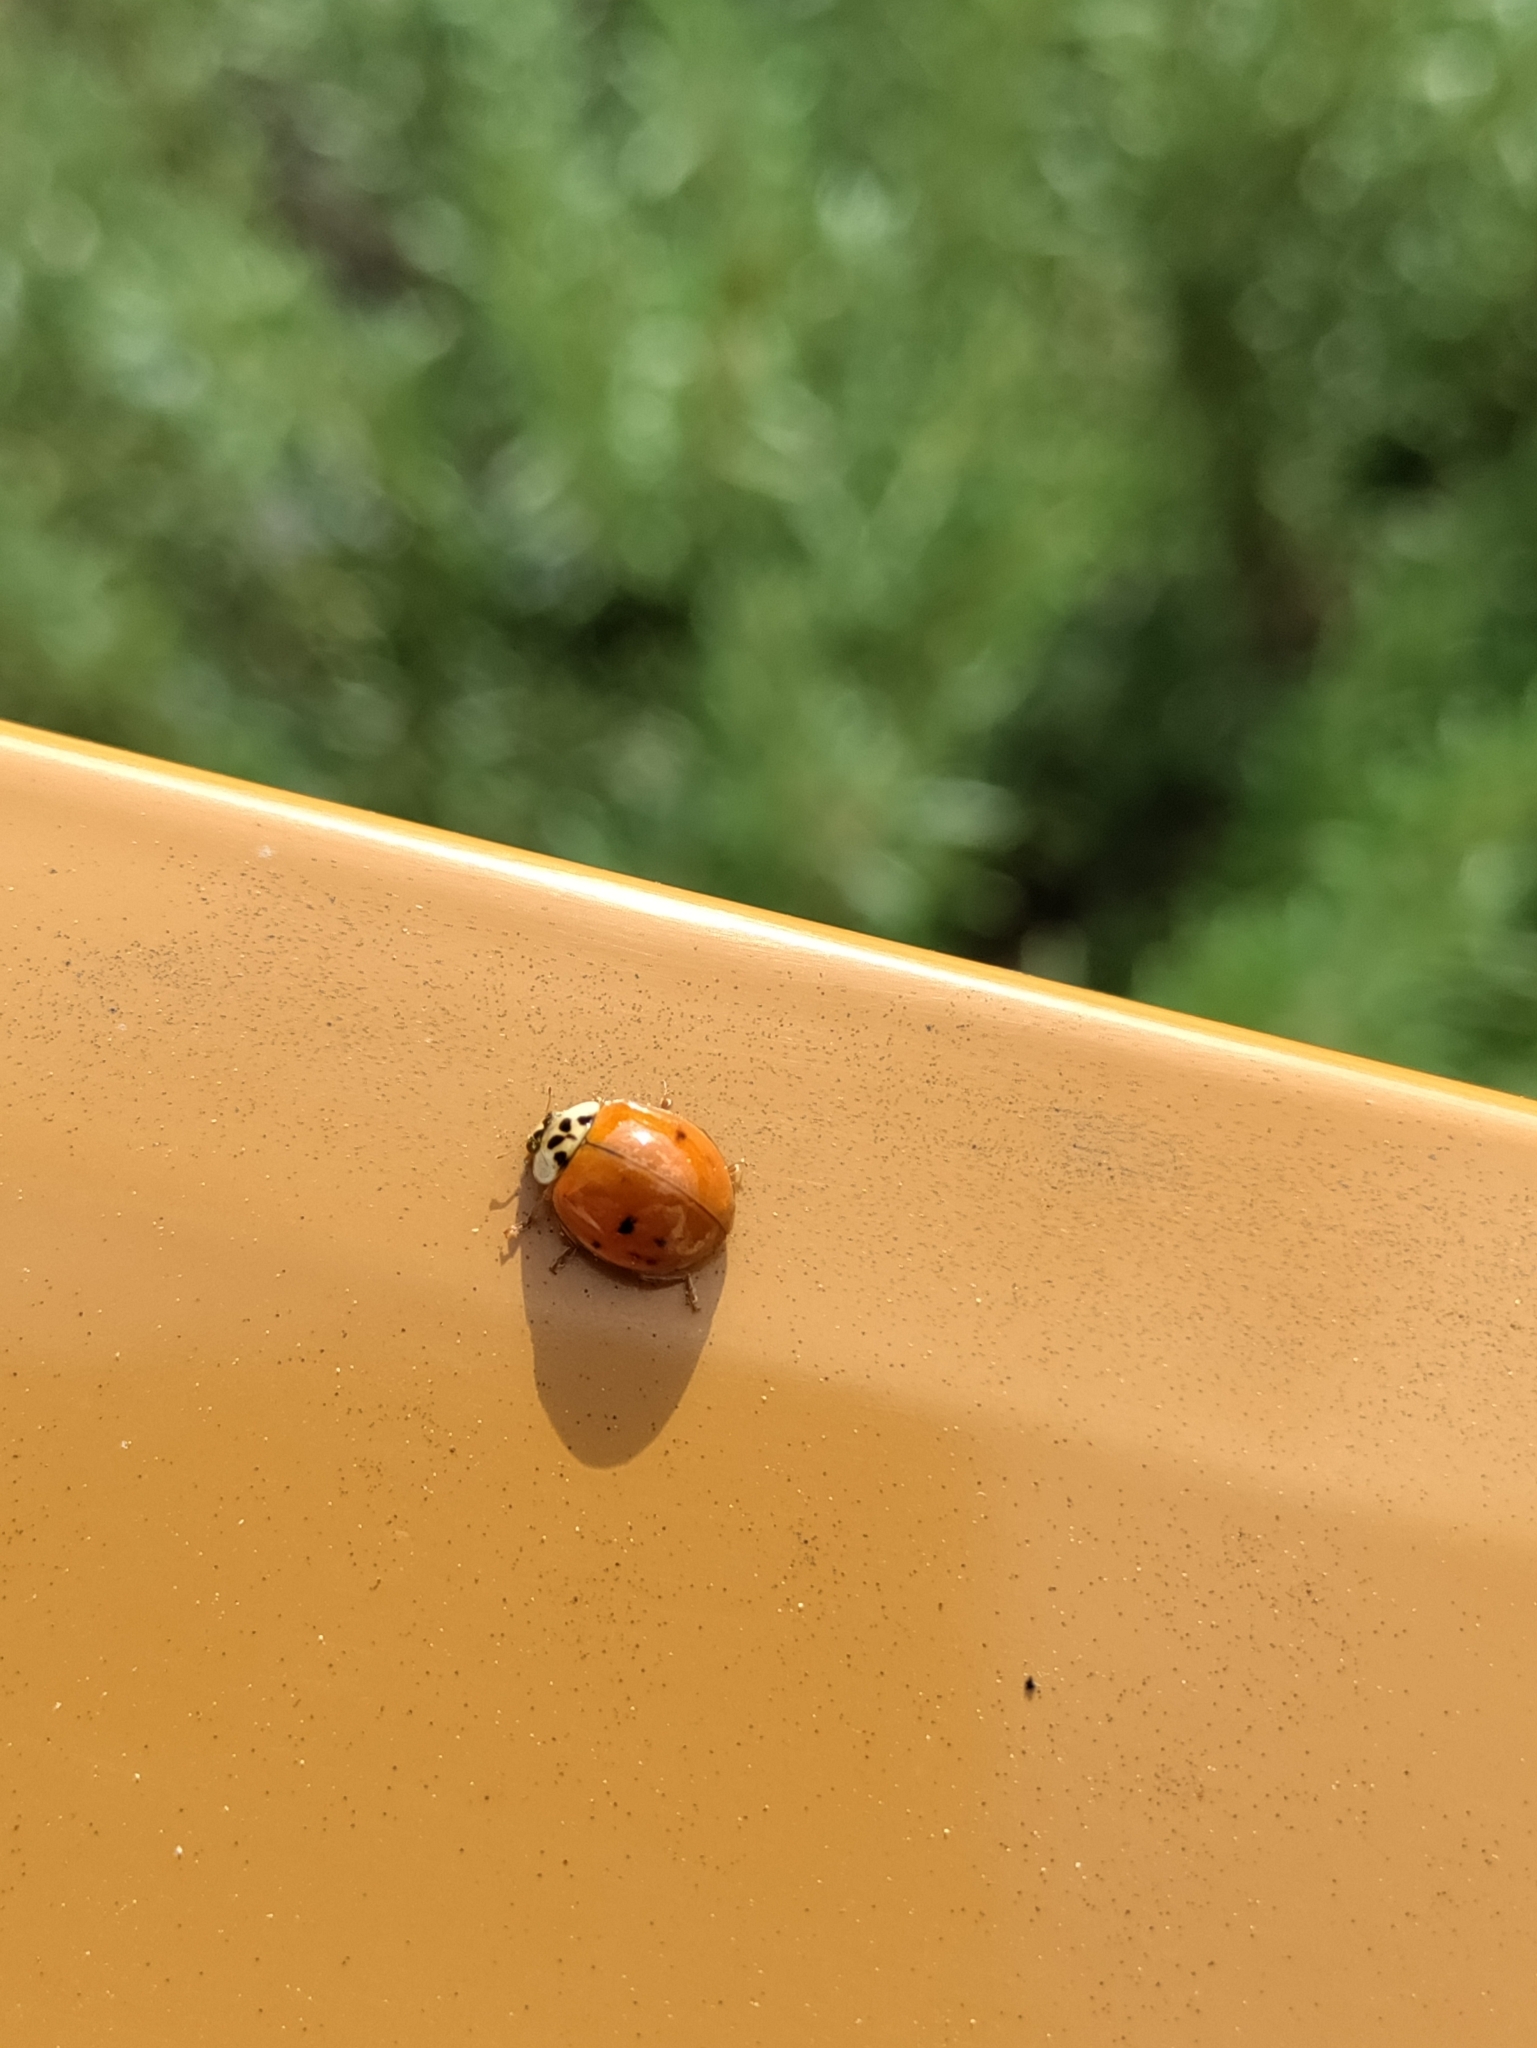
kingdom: Animalia
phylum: Arthropoda
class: Insecta
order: Coleoptera
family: Coccinellidae
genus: Harmonia
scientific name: Harmonia axyridis
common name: Harlequin ladybird
